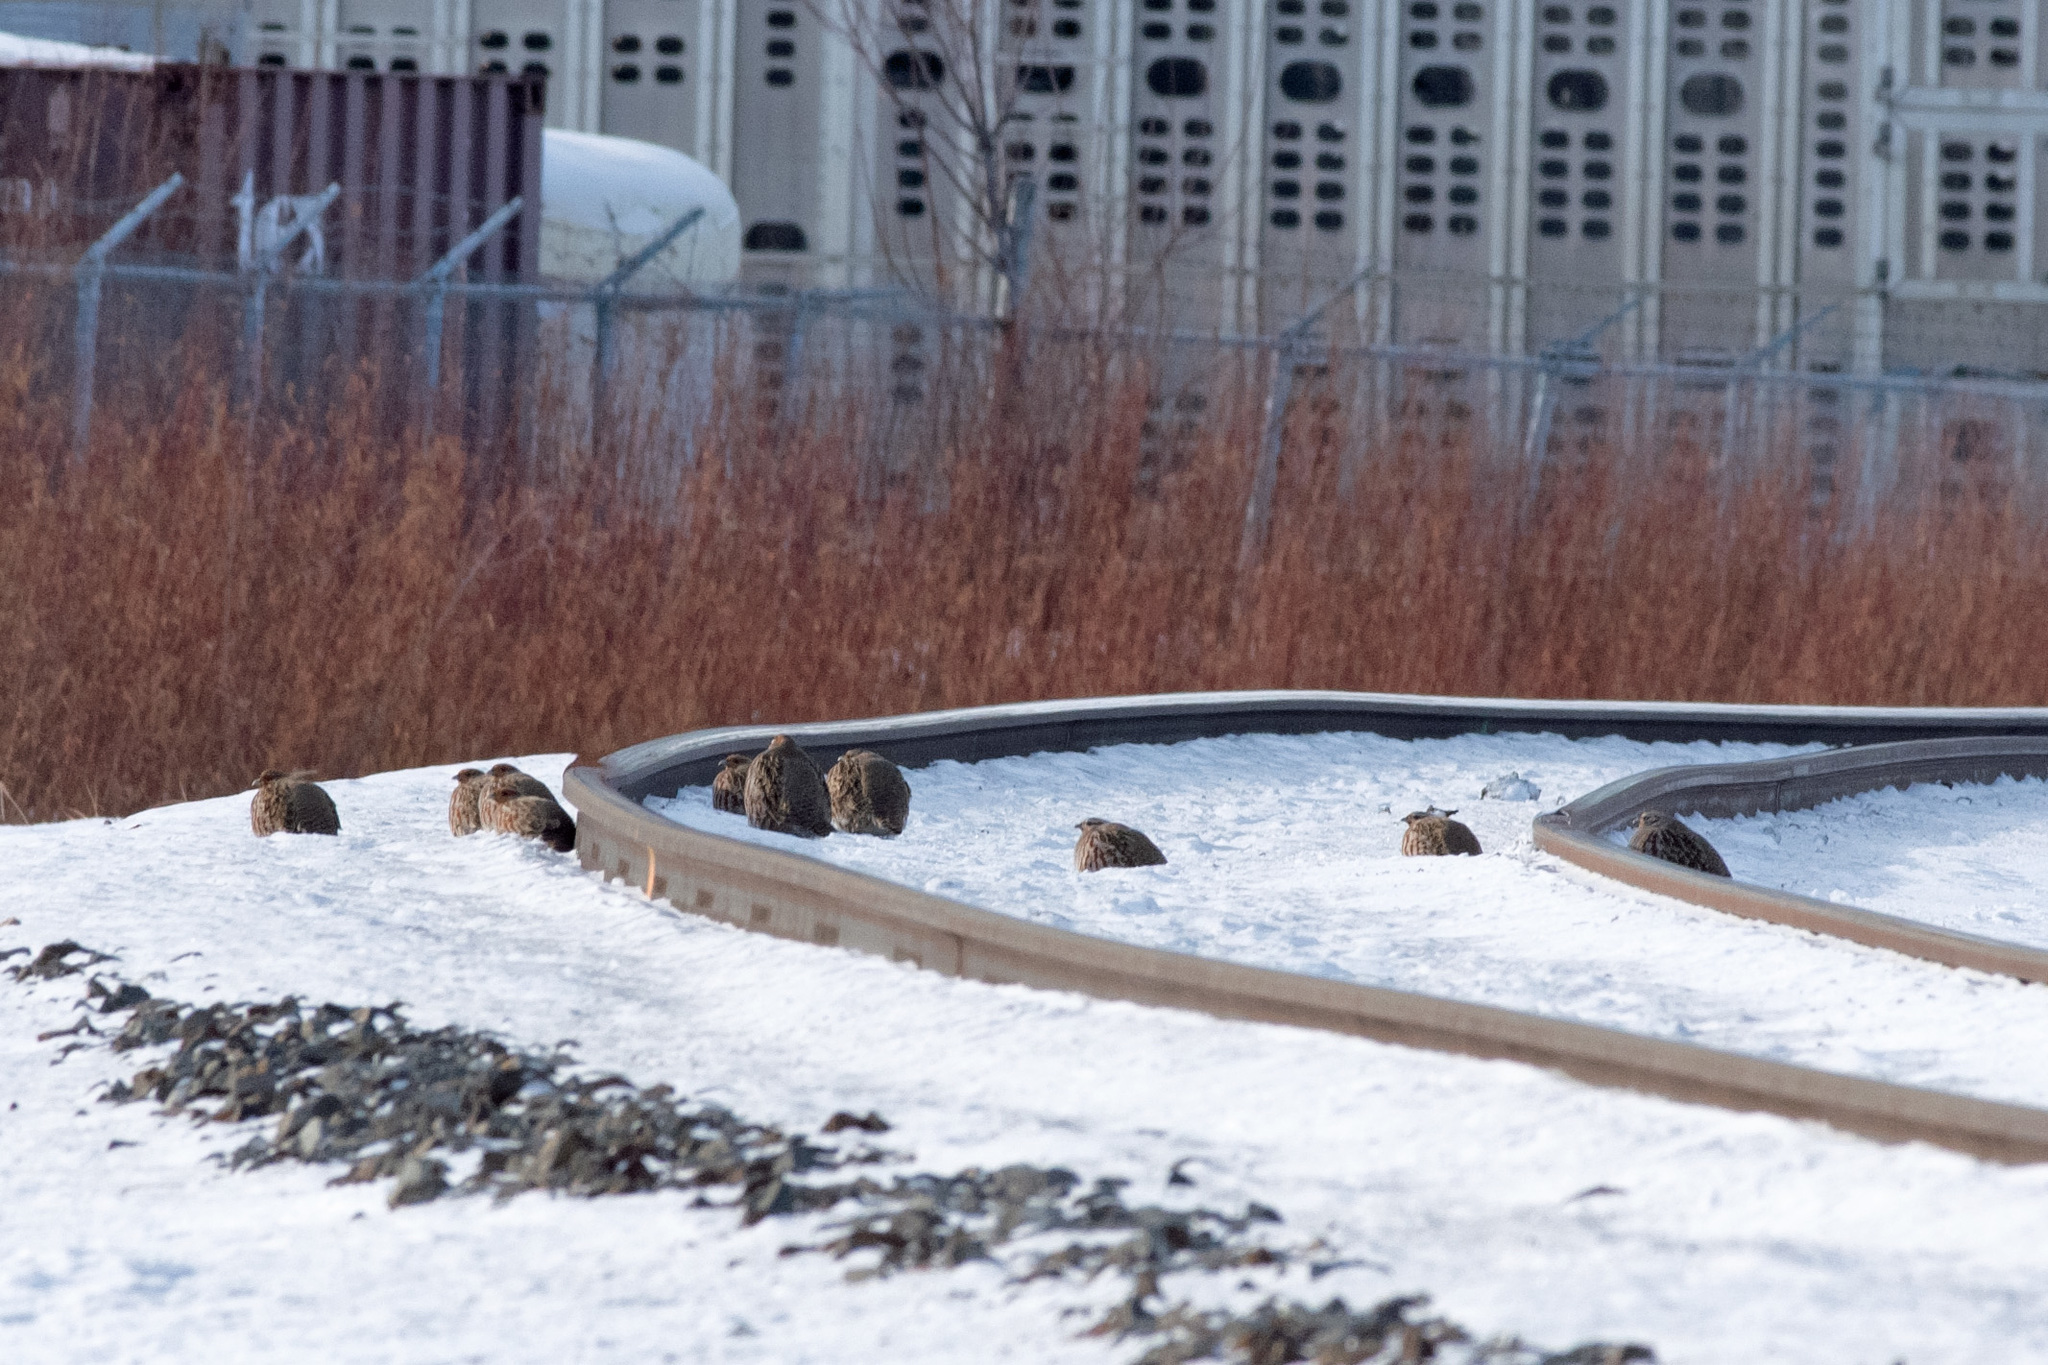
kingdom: Animalia
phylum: Chordata
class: Aves
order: Galliformes
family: Phasianidae
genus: Perdix
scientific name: Perdix perdix
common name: Grey partridge
